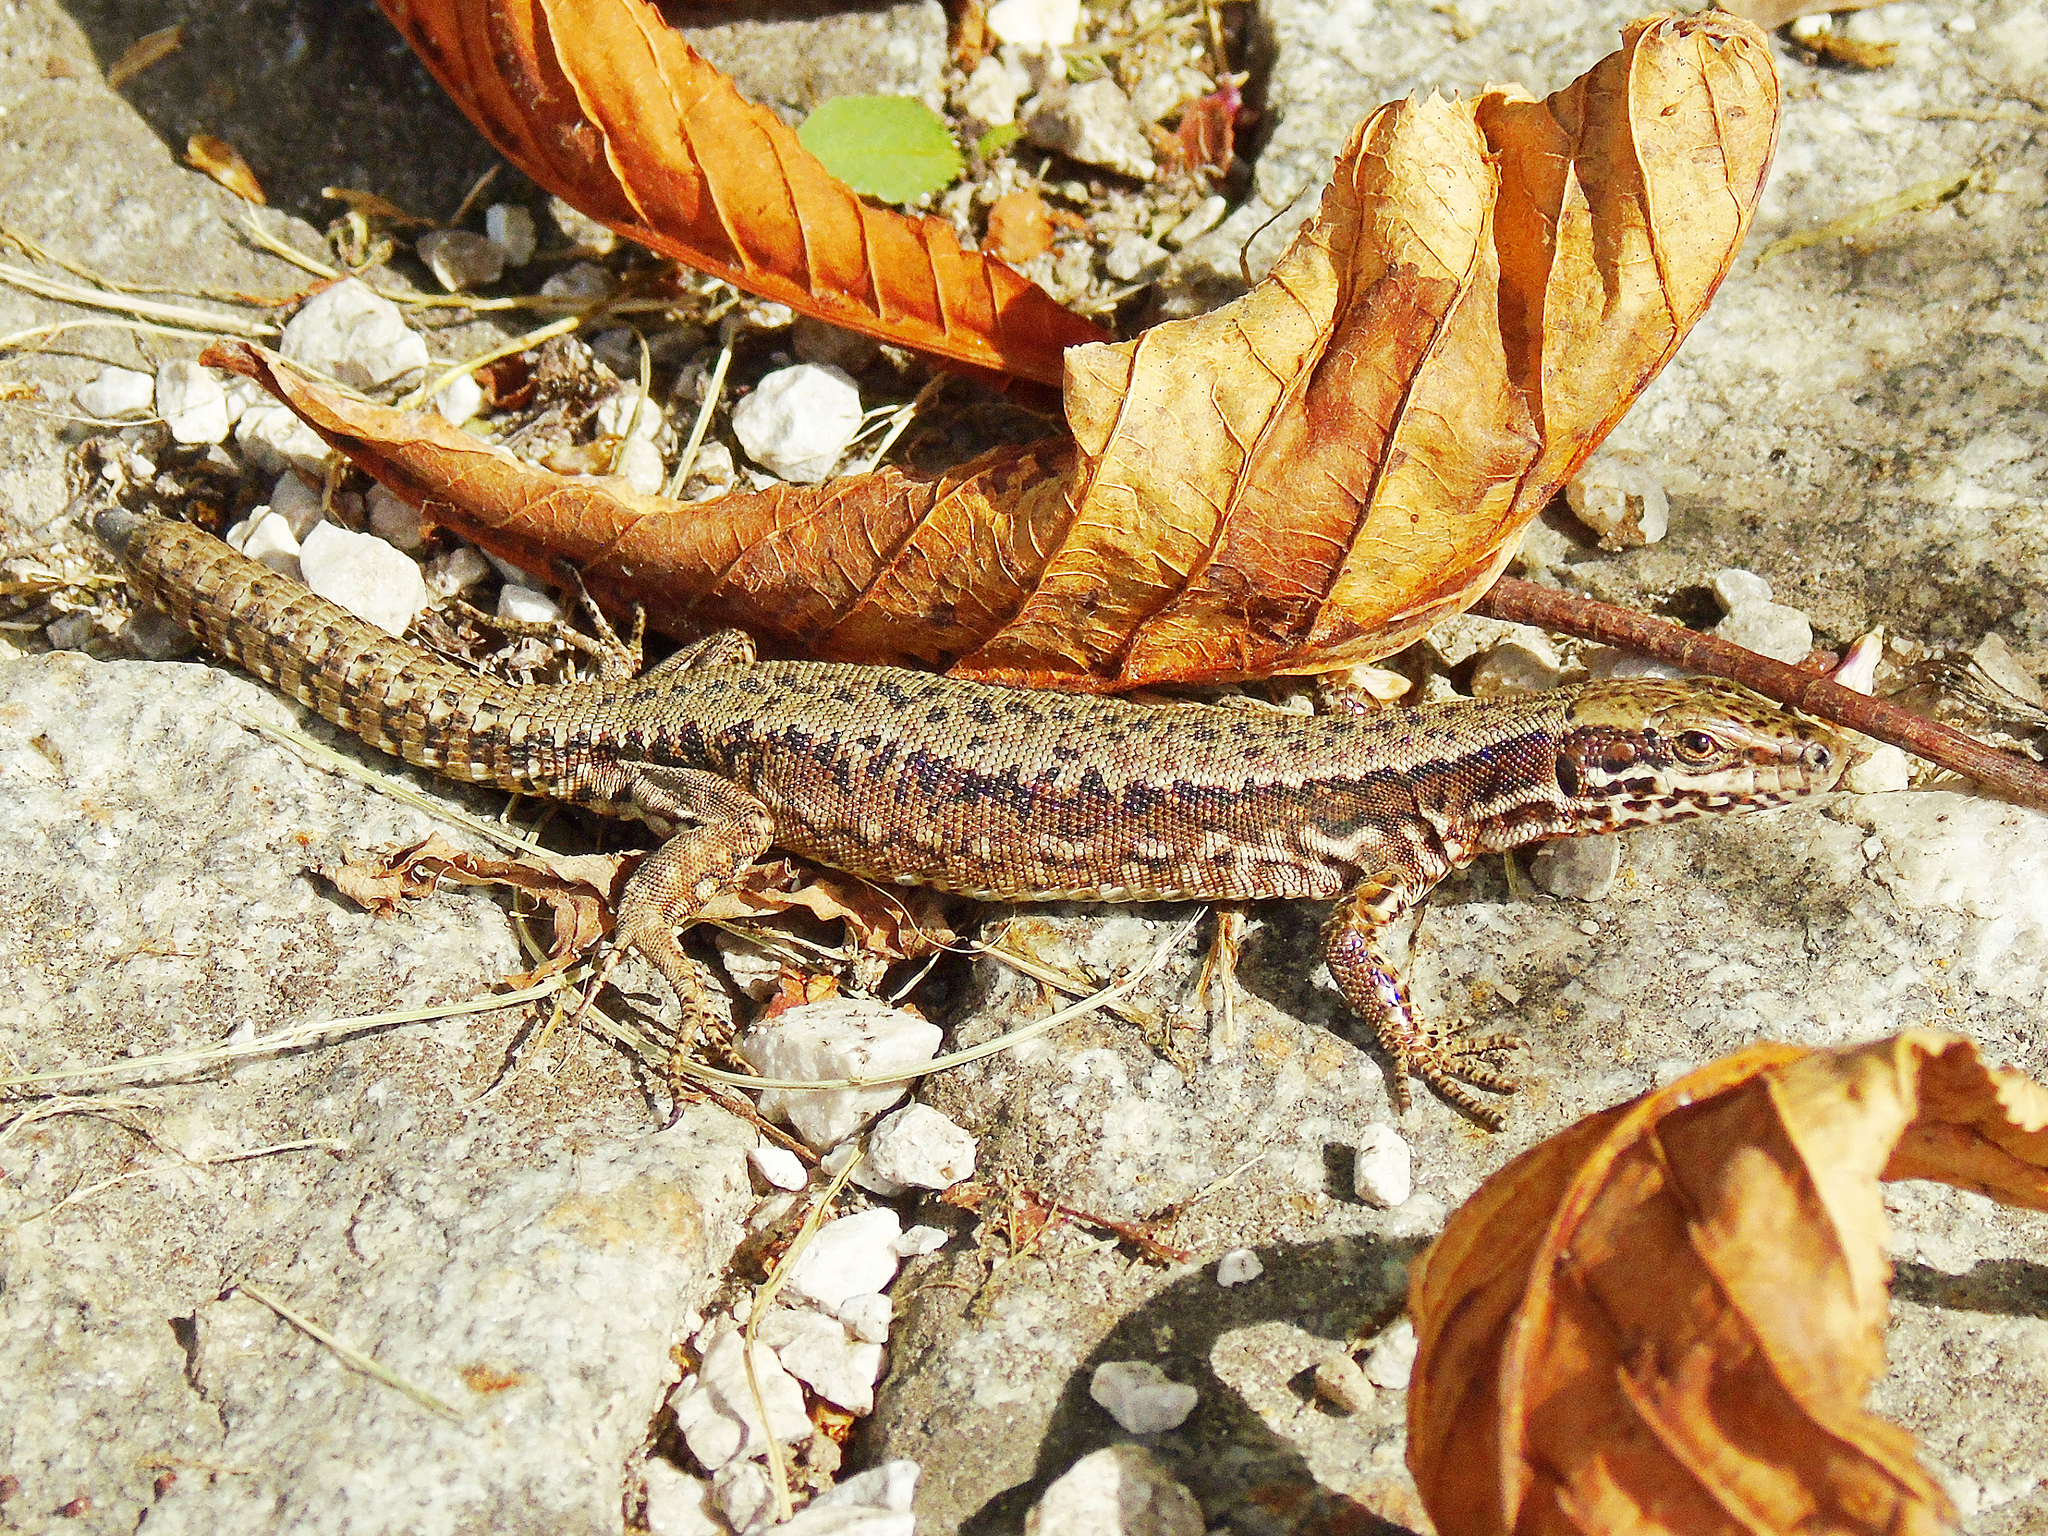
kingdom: Animalia
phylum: Chordata
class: Squamata
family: Lacertidae
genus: Podarcis
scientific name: Podarcis muralis
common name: Common wall lizard
